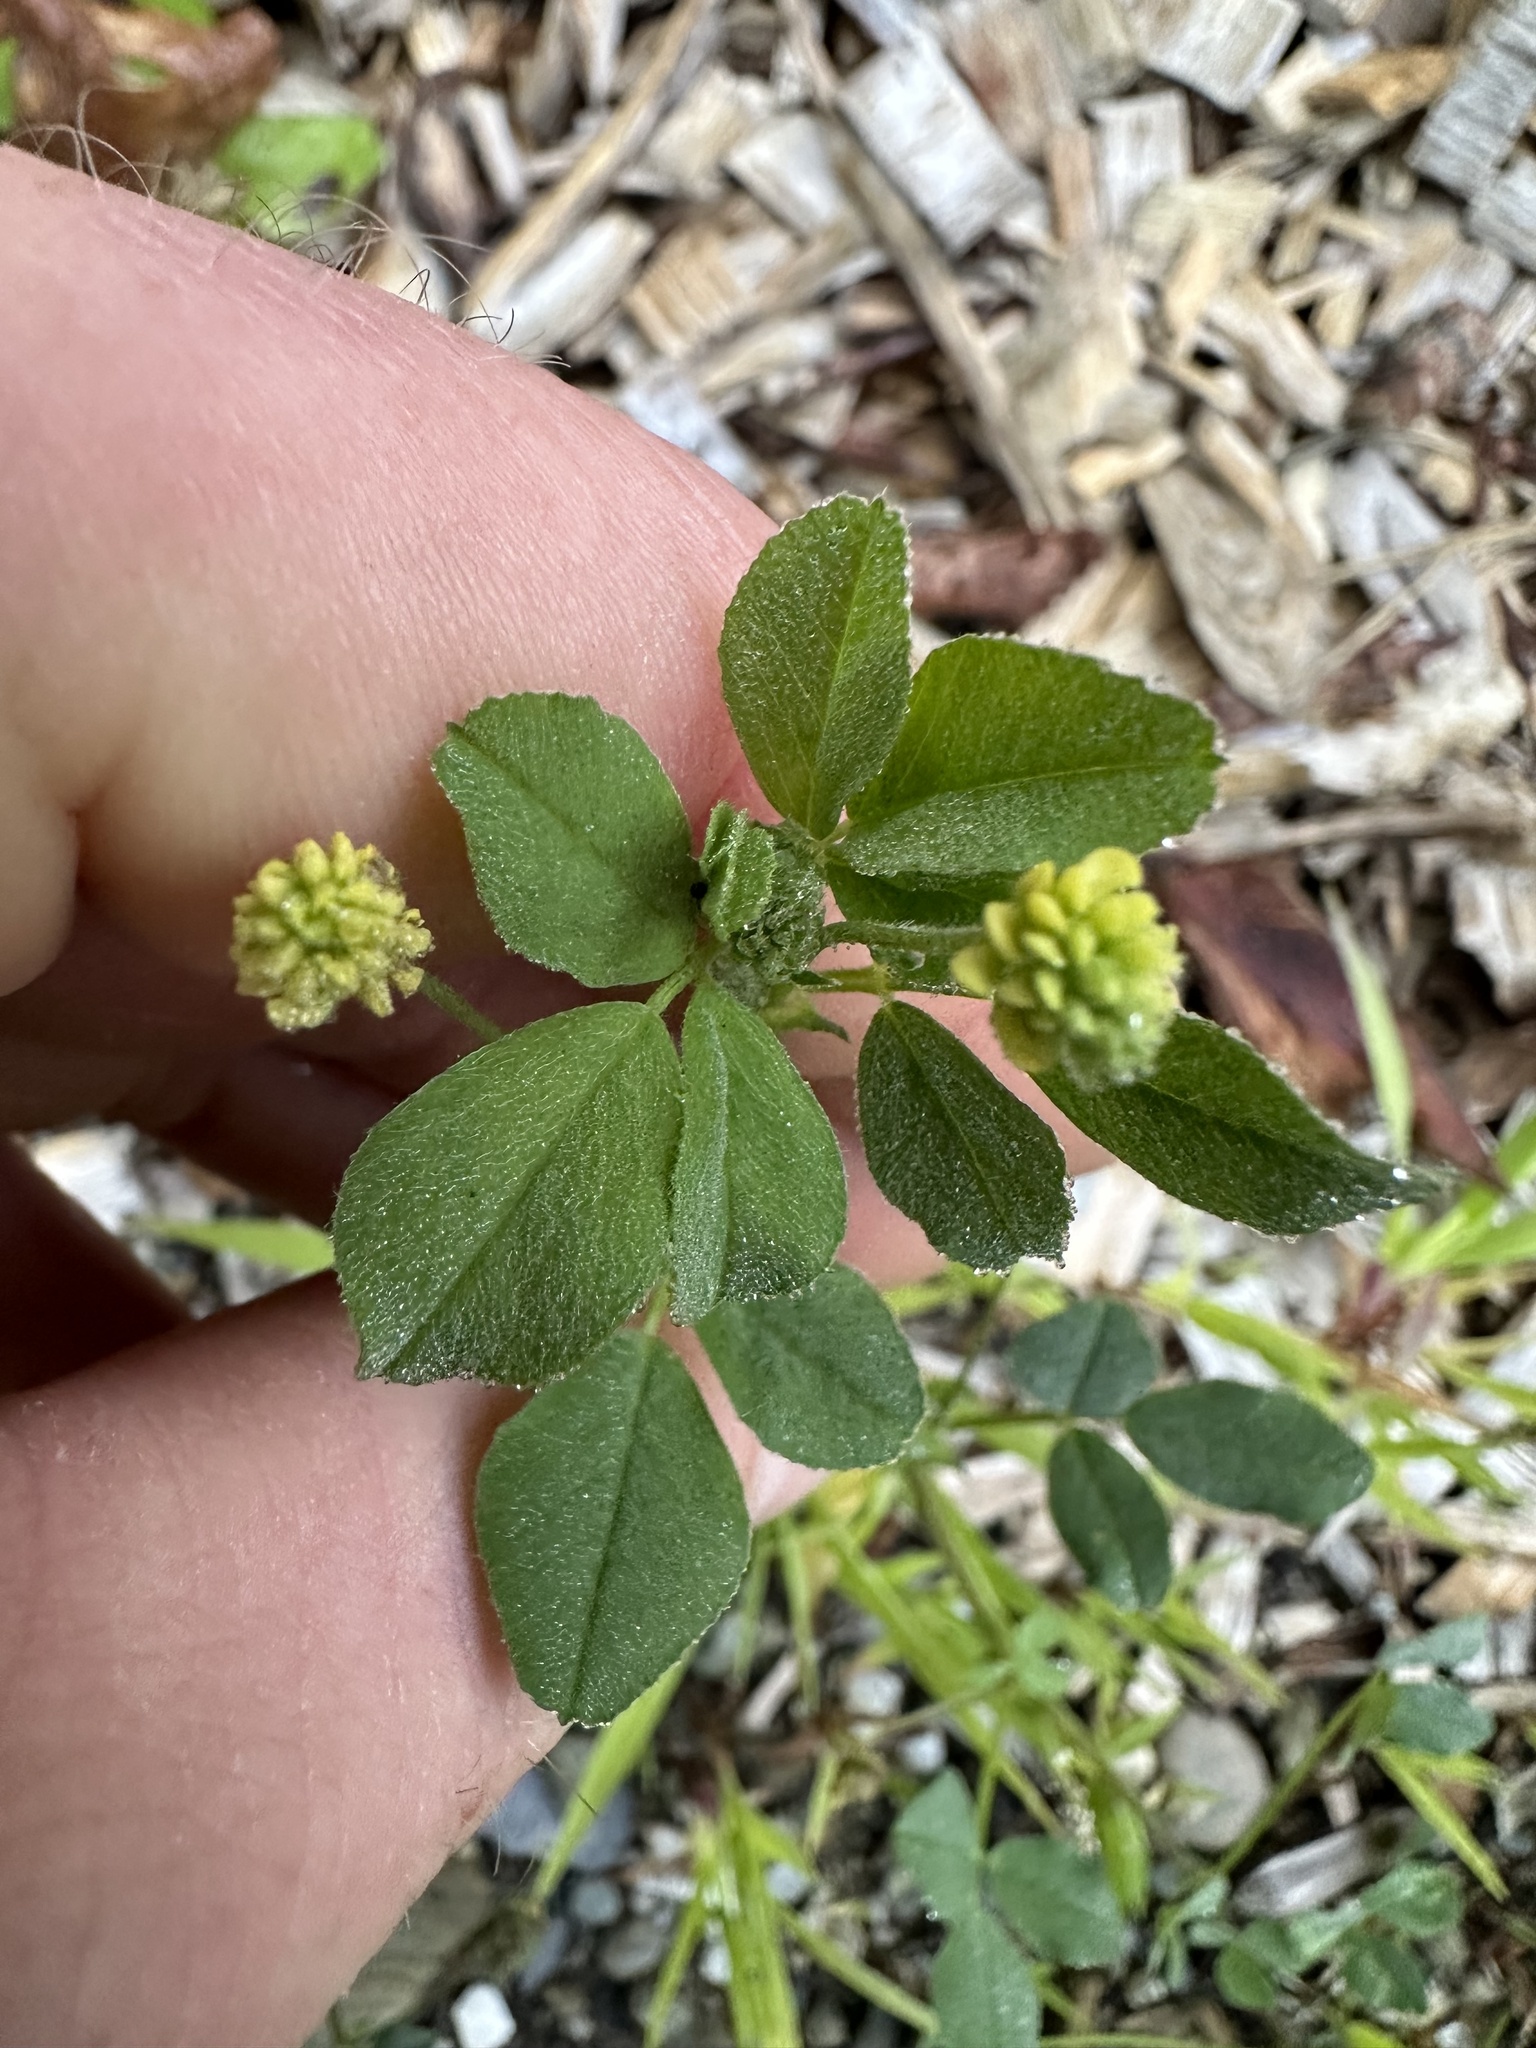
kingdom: Plantae
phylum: Tracheophyta
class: Magnoliopsida
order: Fabales
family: Fabaceae
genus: Medicago
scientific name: Medicago lupulina
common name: Black medick
